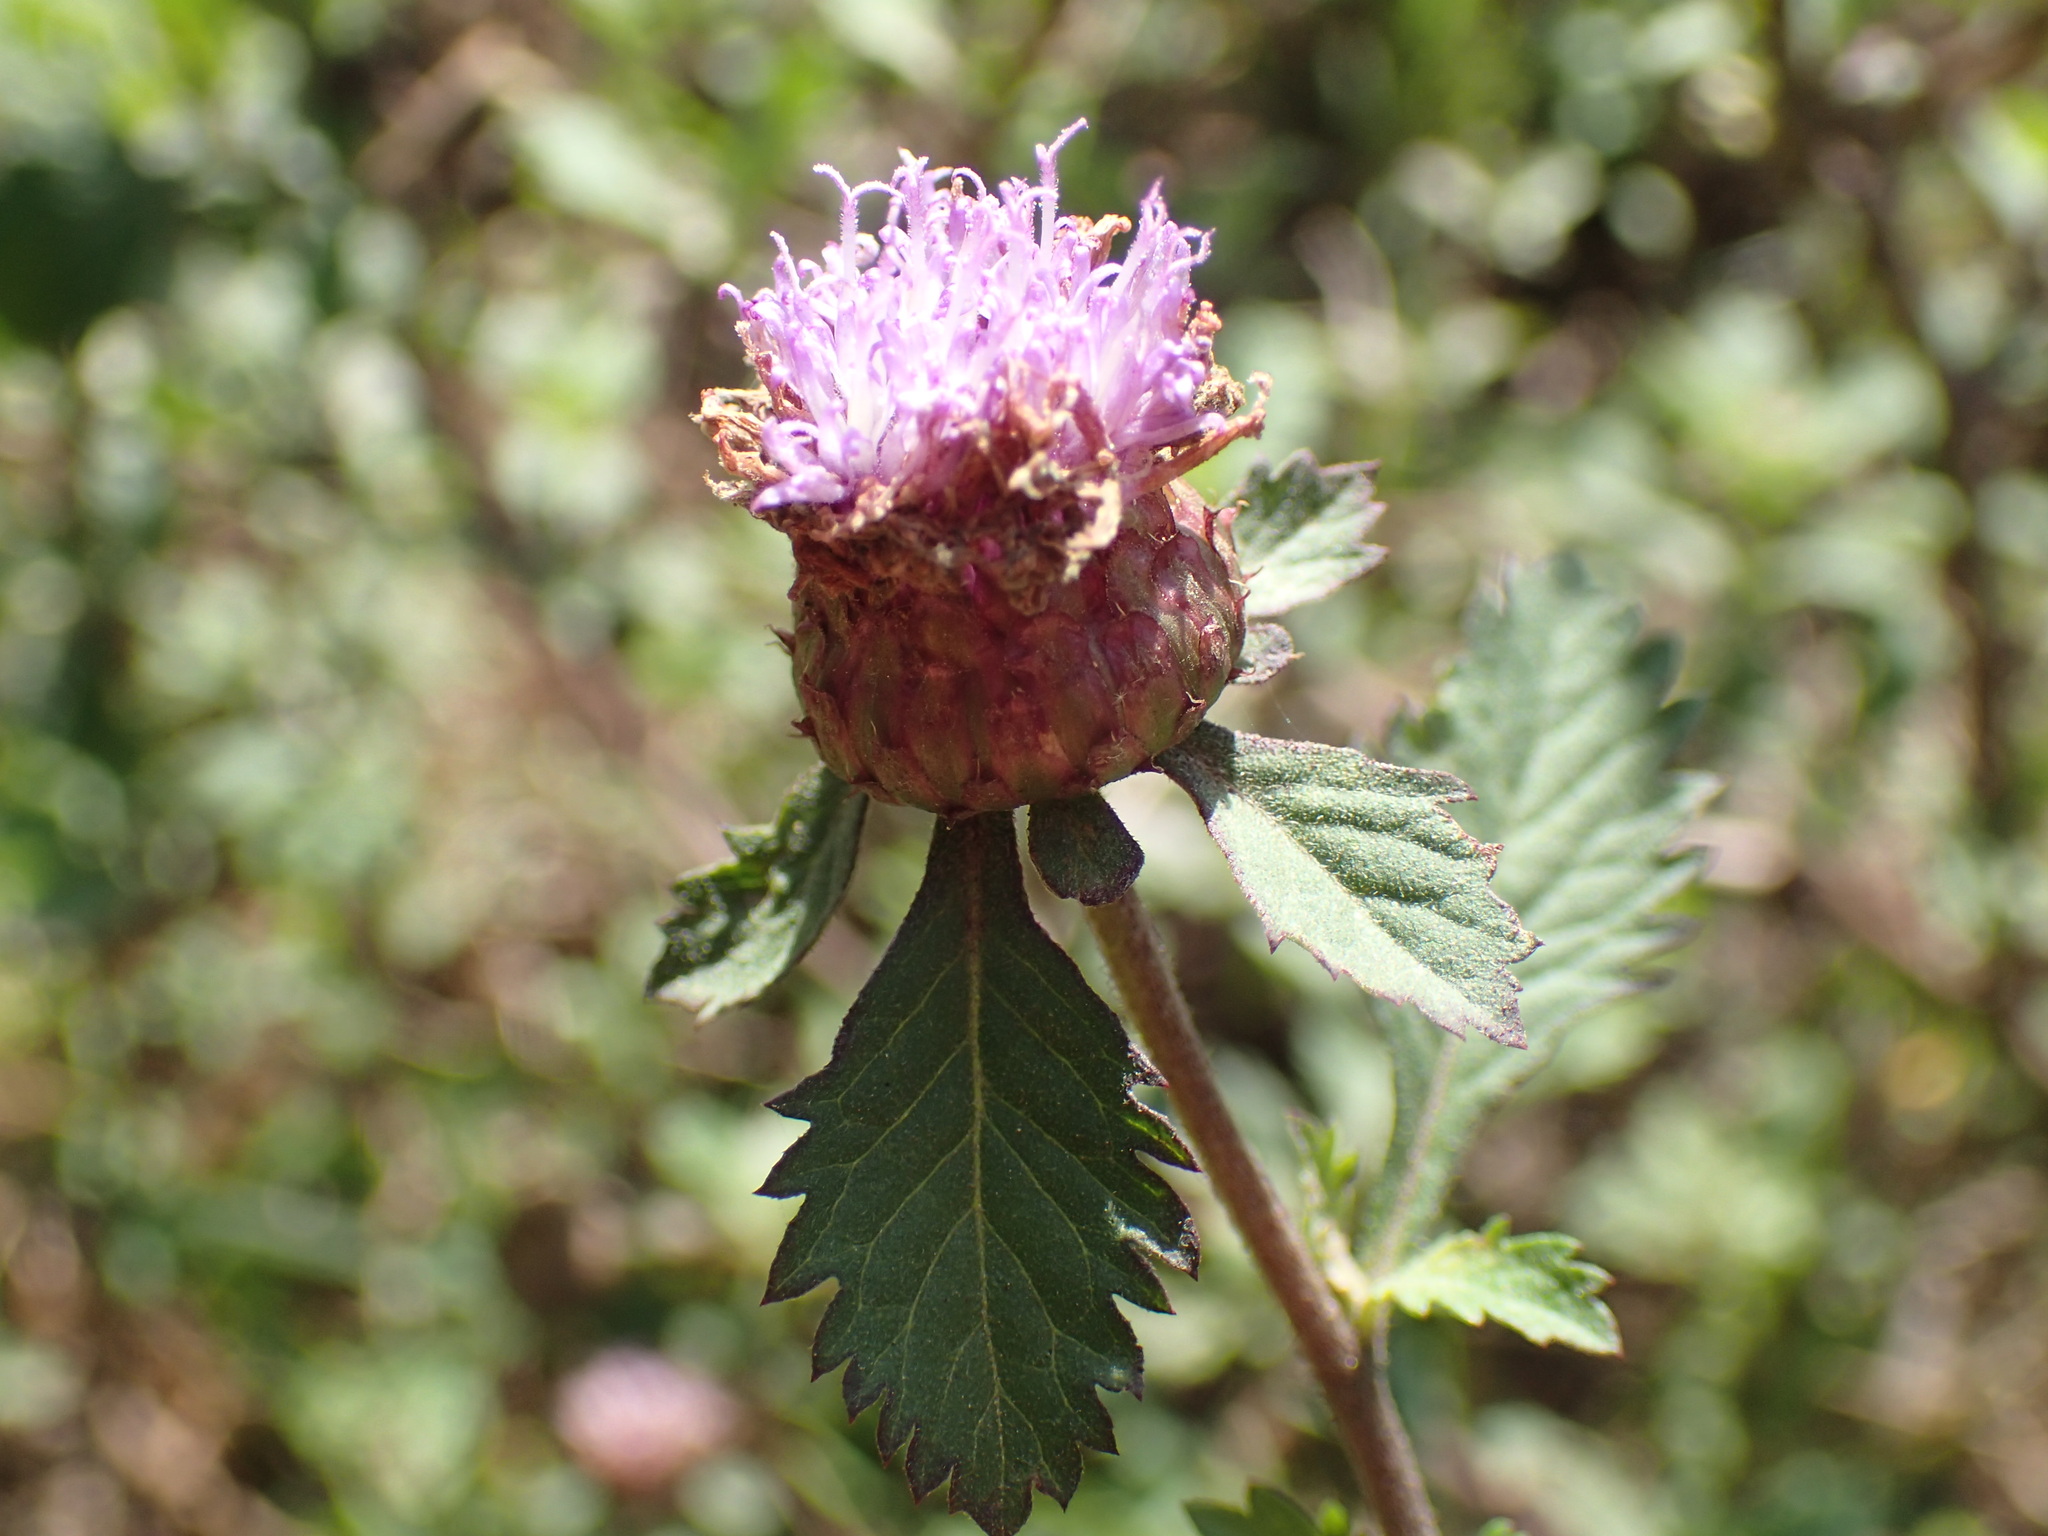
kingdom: Plantae
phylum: Tracheophyta
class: Magnoliopsida
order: Asterales
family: Asteraceae
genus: Centratherum
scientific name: Centratherum punctatum
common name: Larkdaisy
